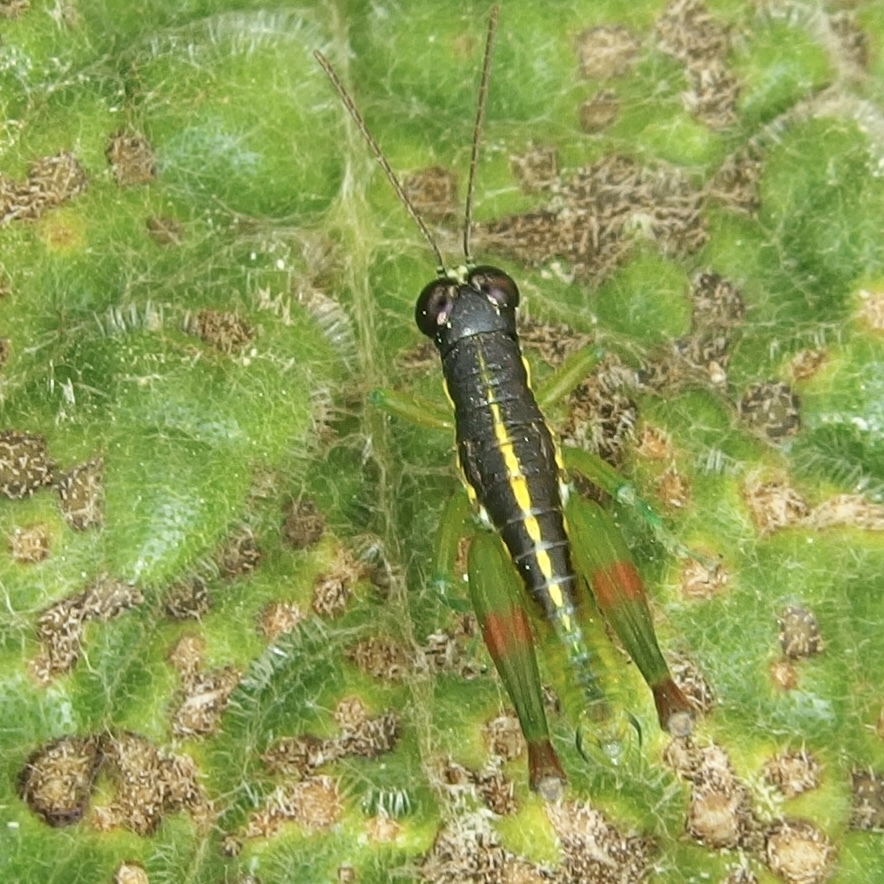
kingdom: Animalia
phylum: Arthropoda
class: Insecta
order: Orthoptera
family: Acrididae
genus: Liebermannacris
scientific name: Liebermannacris dorsualis
